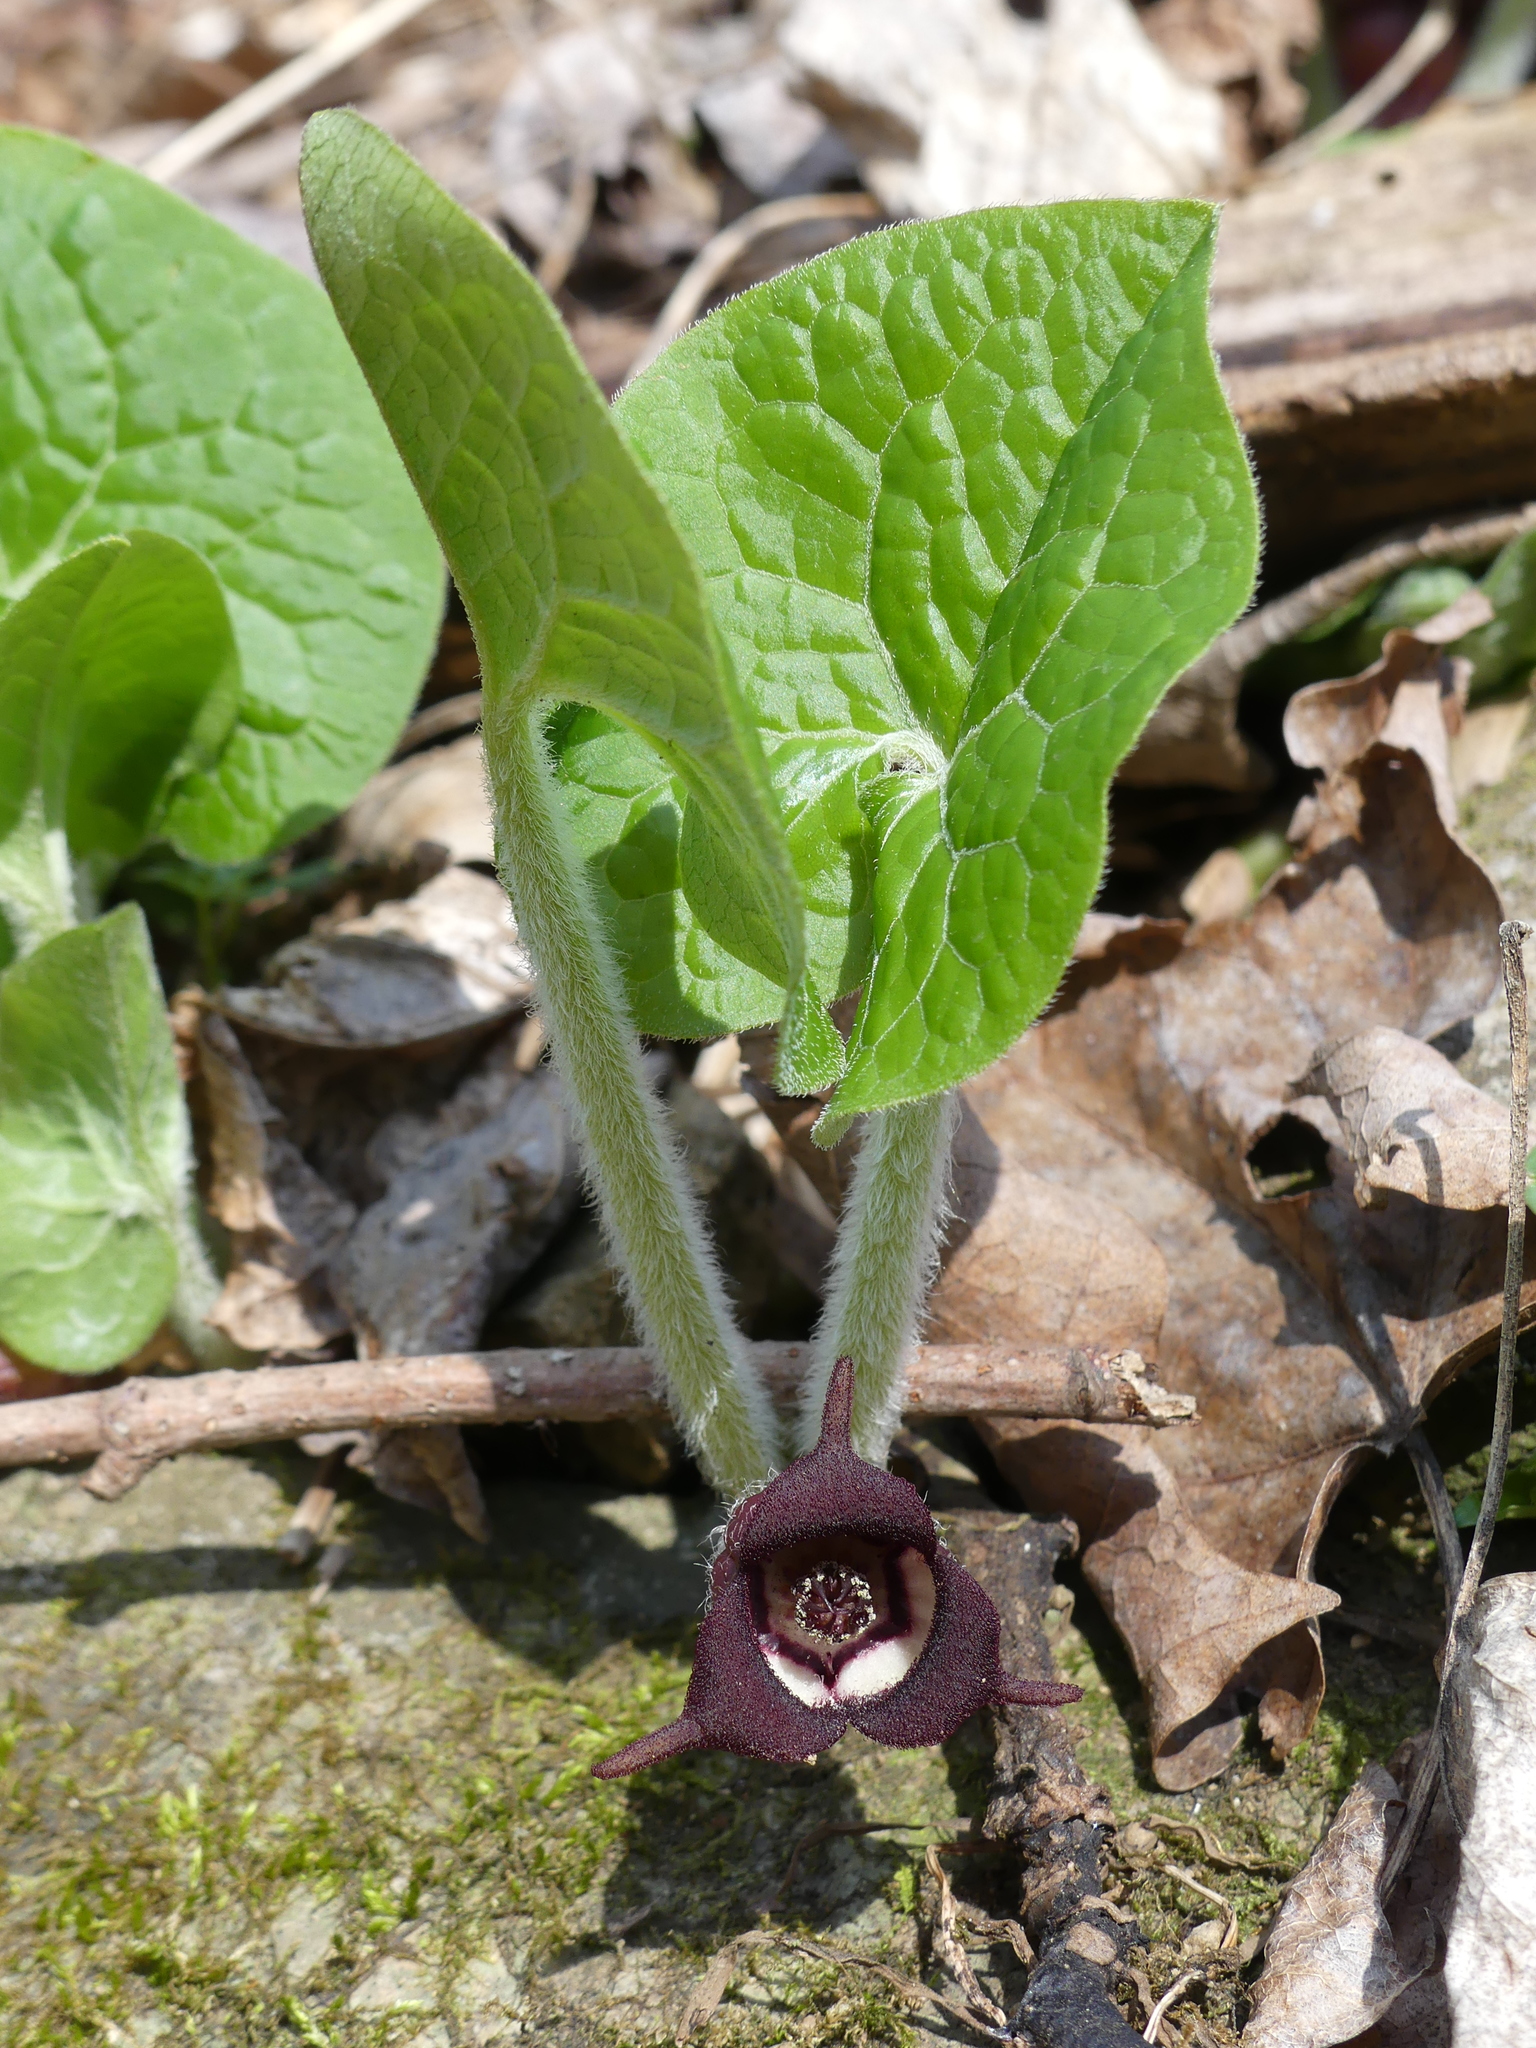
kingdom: Plantae
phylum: Tracheophyta
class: Magnoliopsida
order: Piperales
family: Aristolochiaceae
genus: Asarum
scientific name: Asarum canadense
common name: Wild ginger
